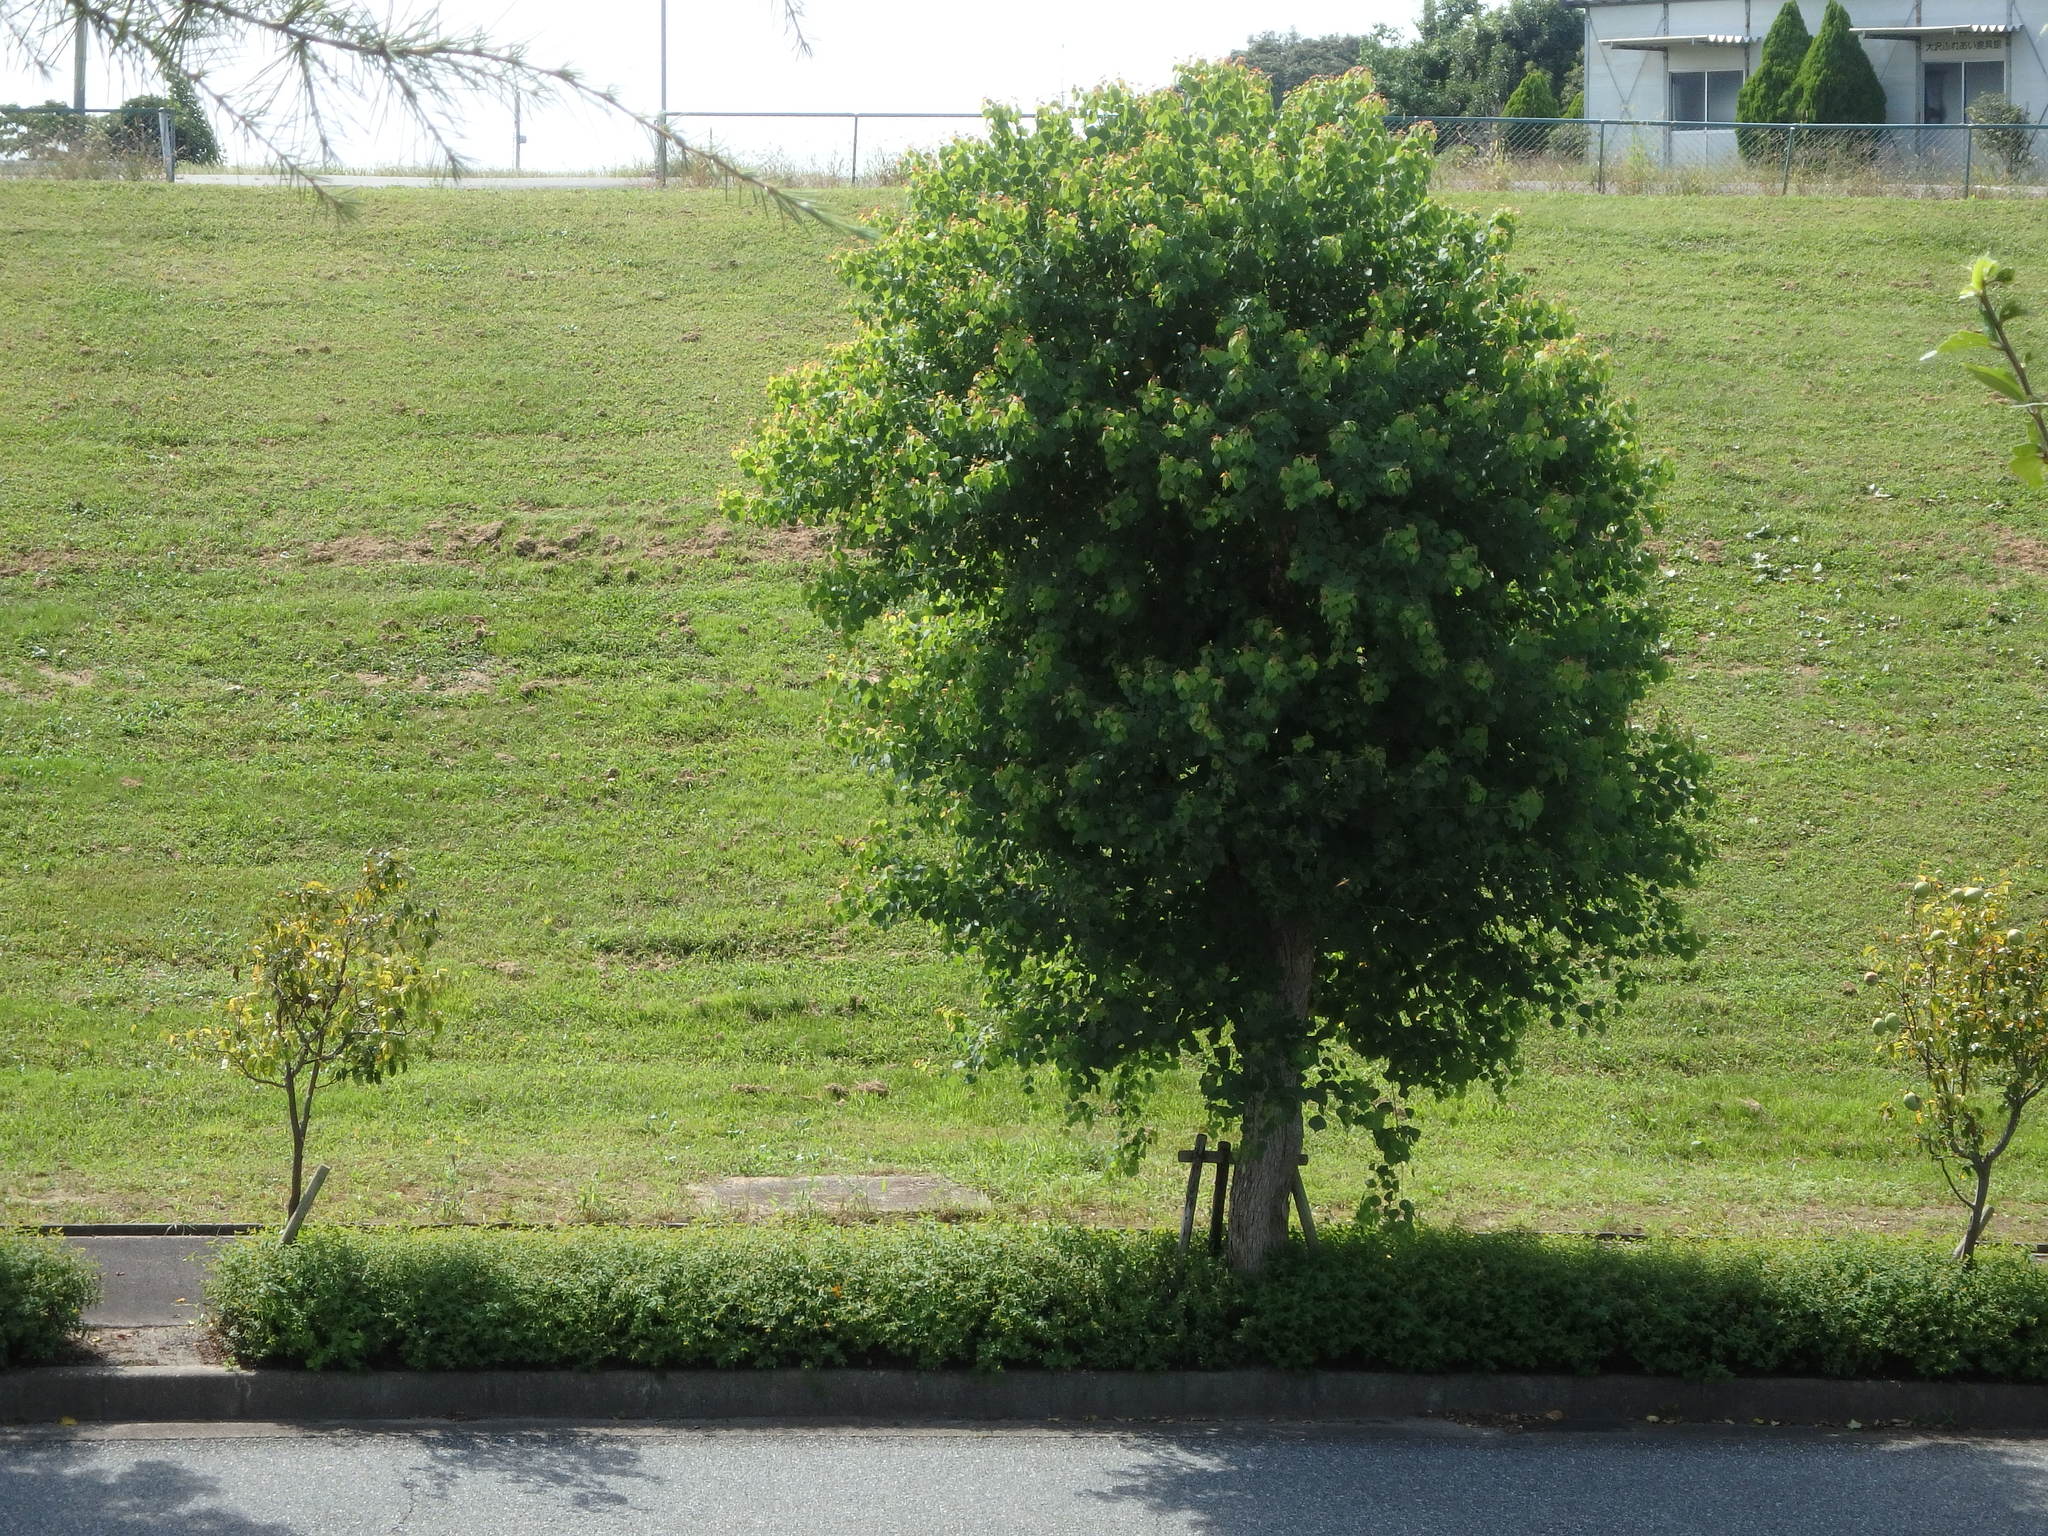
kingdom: Plantae
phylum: Tracheophyta
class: Magnoliopsida
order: Malpighiales
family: Euphorbiaceae
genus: Triadica
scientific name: Triadica sebifera
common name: Chinese tallow
